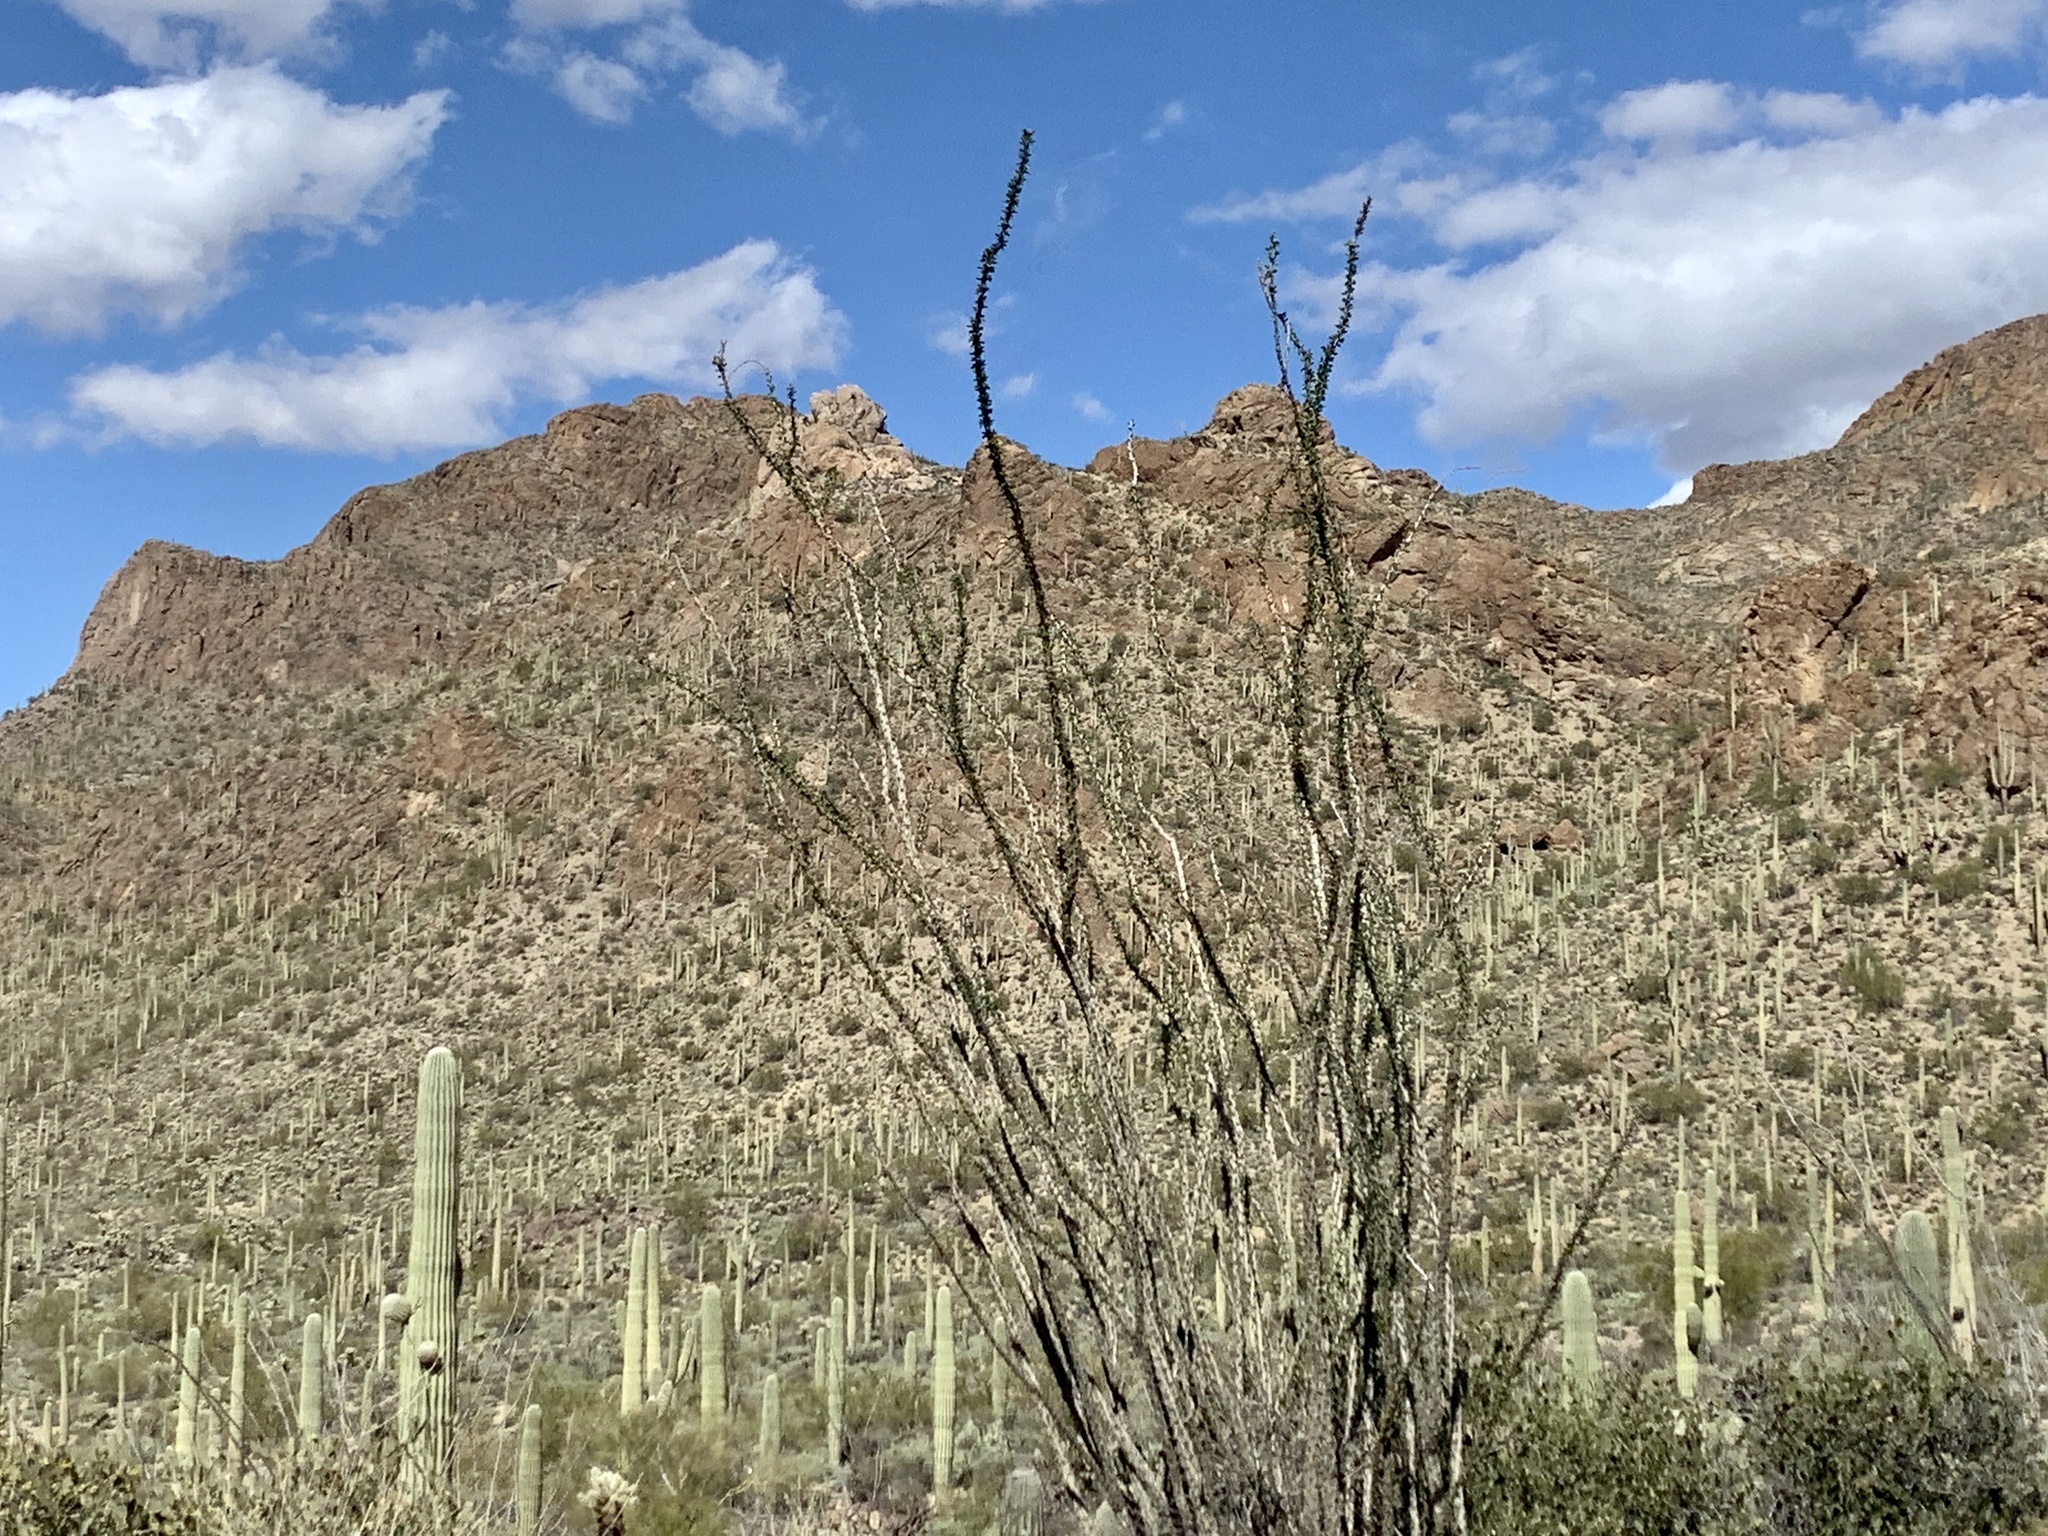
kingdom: Plantae
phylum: Tracheophyta
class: Magnoliopsida
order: Ericales
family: Fouquieriaceae
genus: Fouquieria
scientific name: Fouquieria splendens
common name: Vine-cactus
